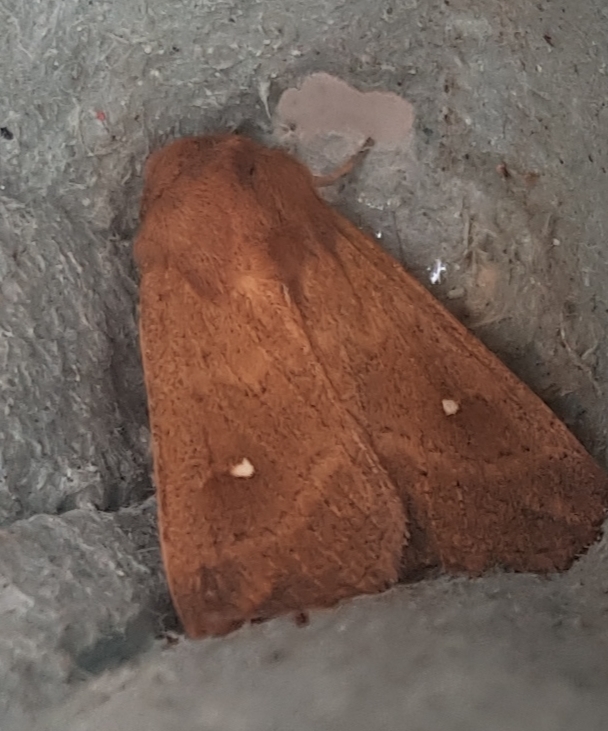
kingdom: Animalia
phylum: Arthropoda
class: Insecta
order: Lepidoptera
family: Noctuidae
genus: Mythimna
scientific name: Mythimna albipuncta
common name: White-point
